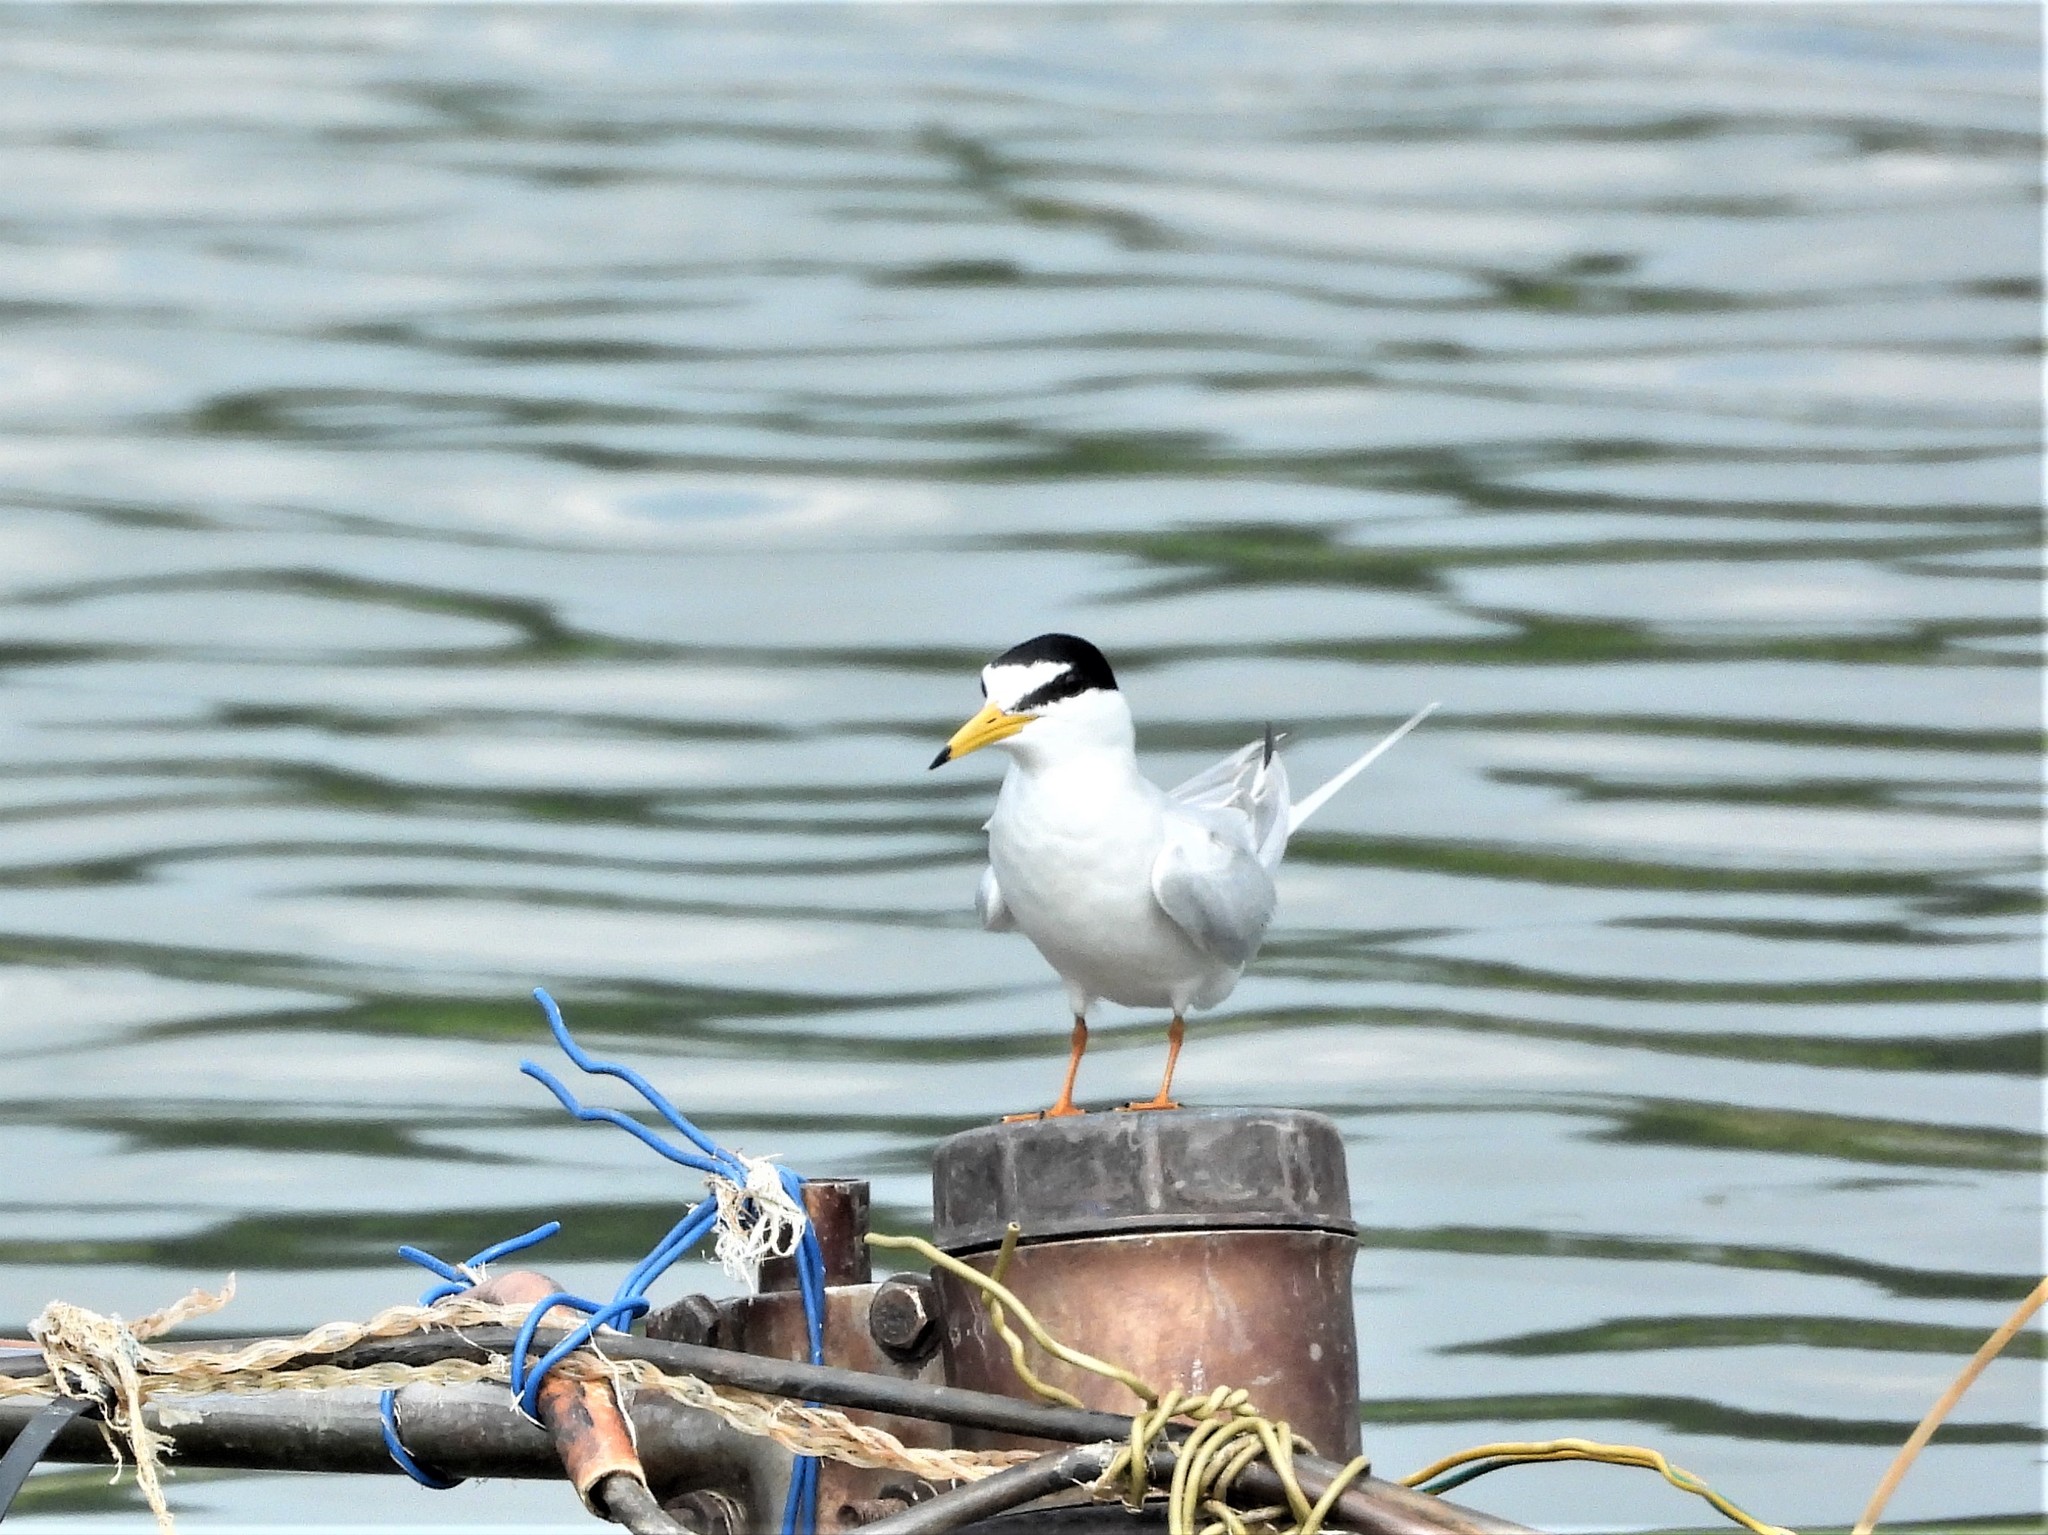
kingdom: Animalia
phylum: Chordata
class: Aves
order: Charadriiformes
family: Laridae
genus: Sternula
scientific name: Sternula albifrons
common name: Little tern
